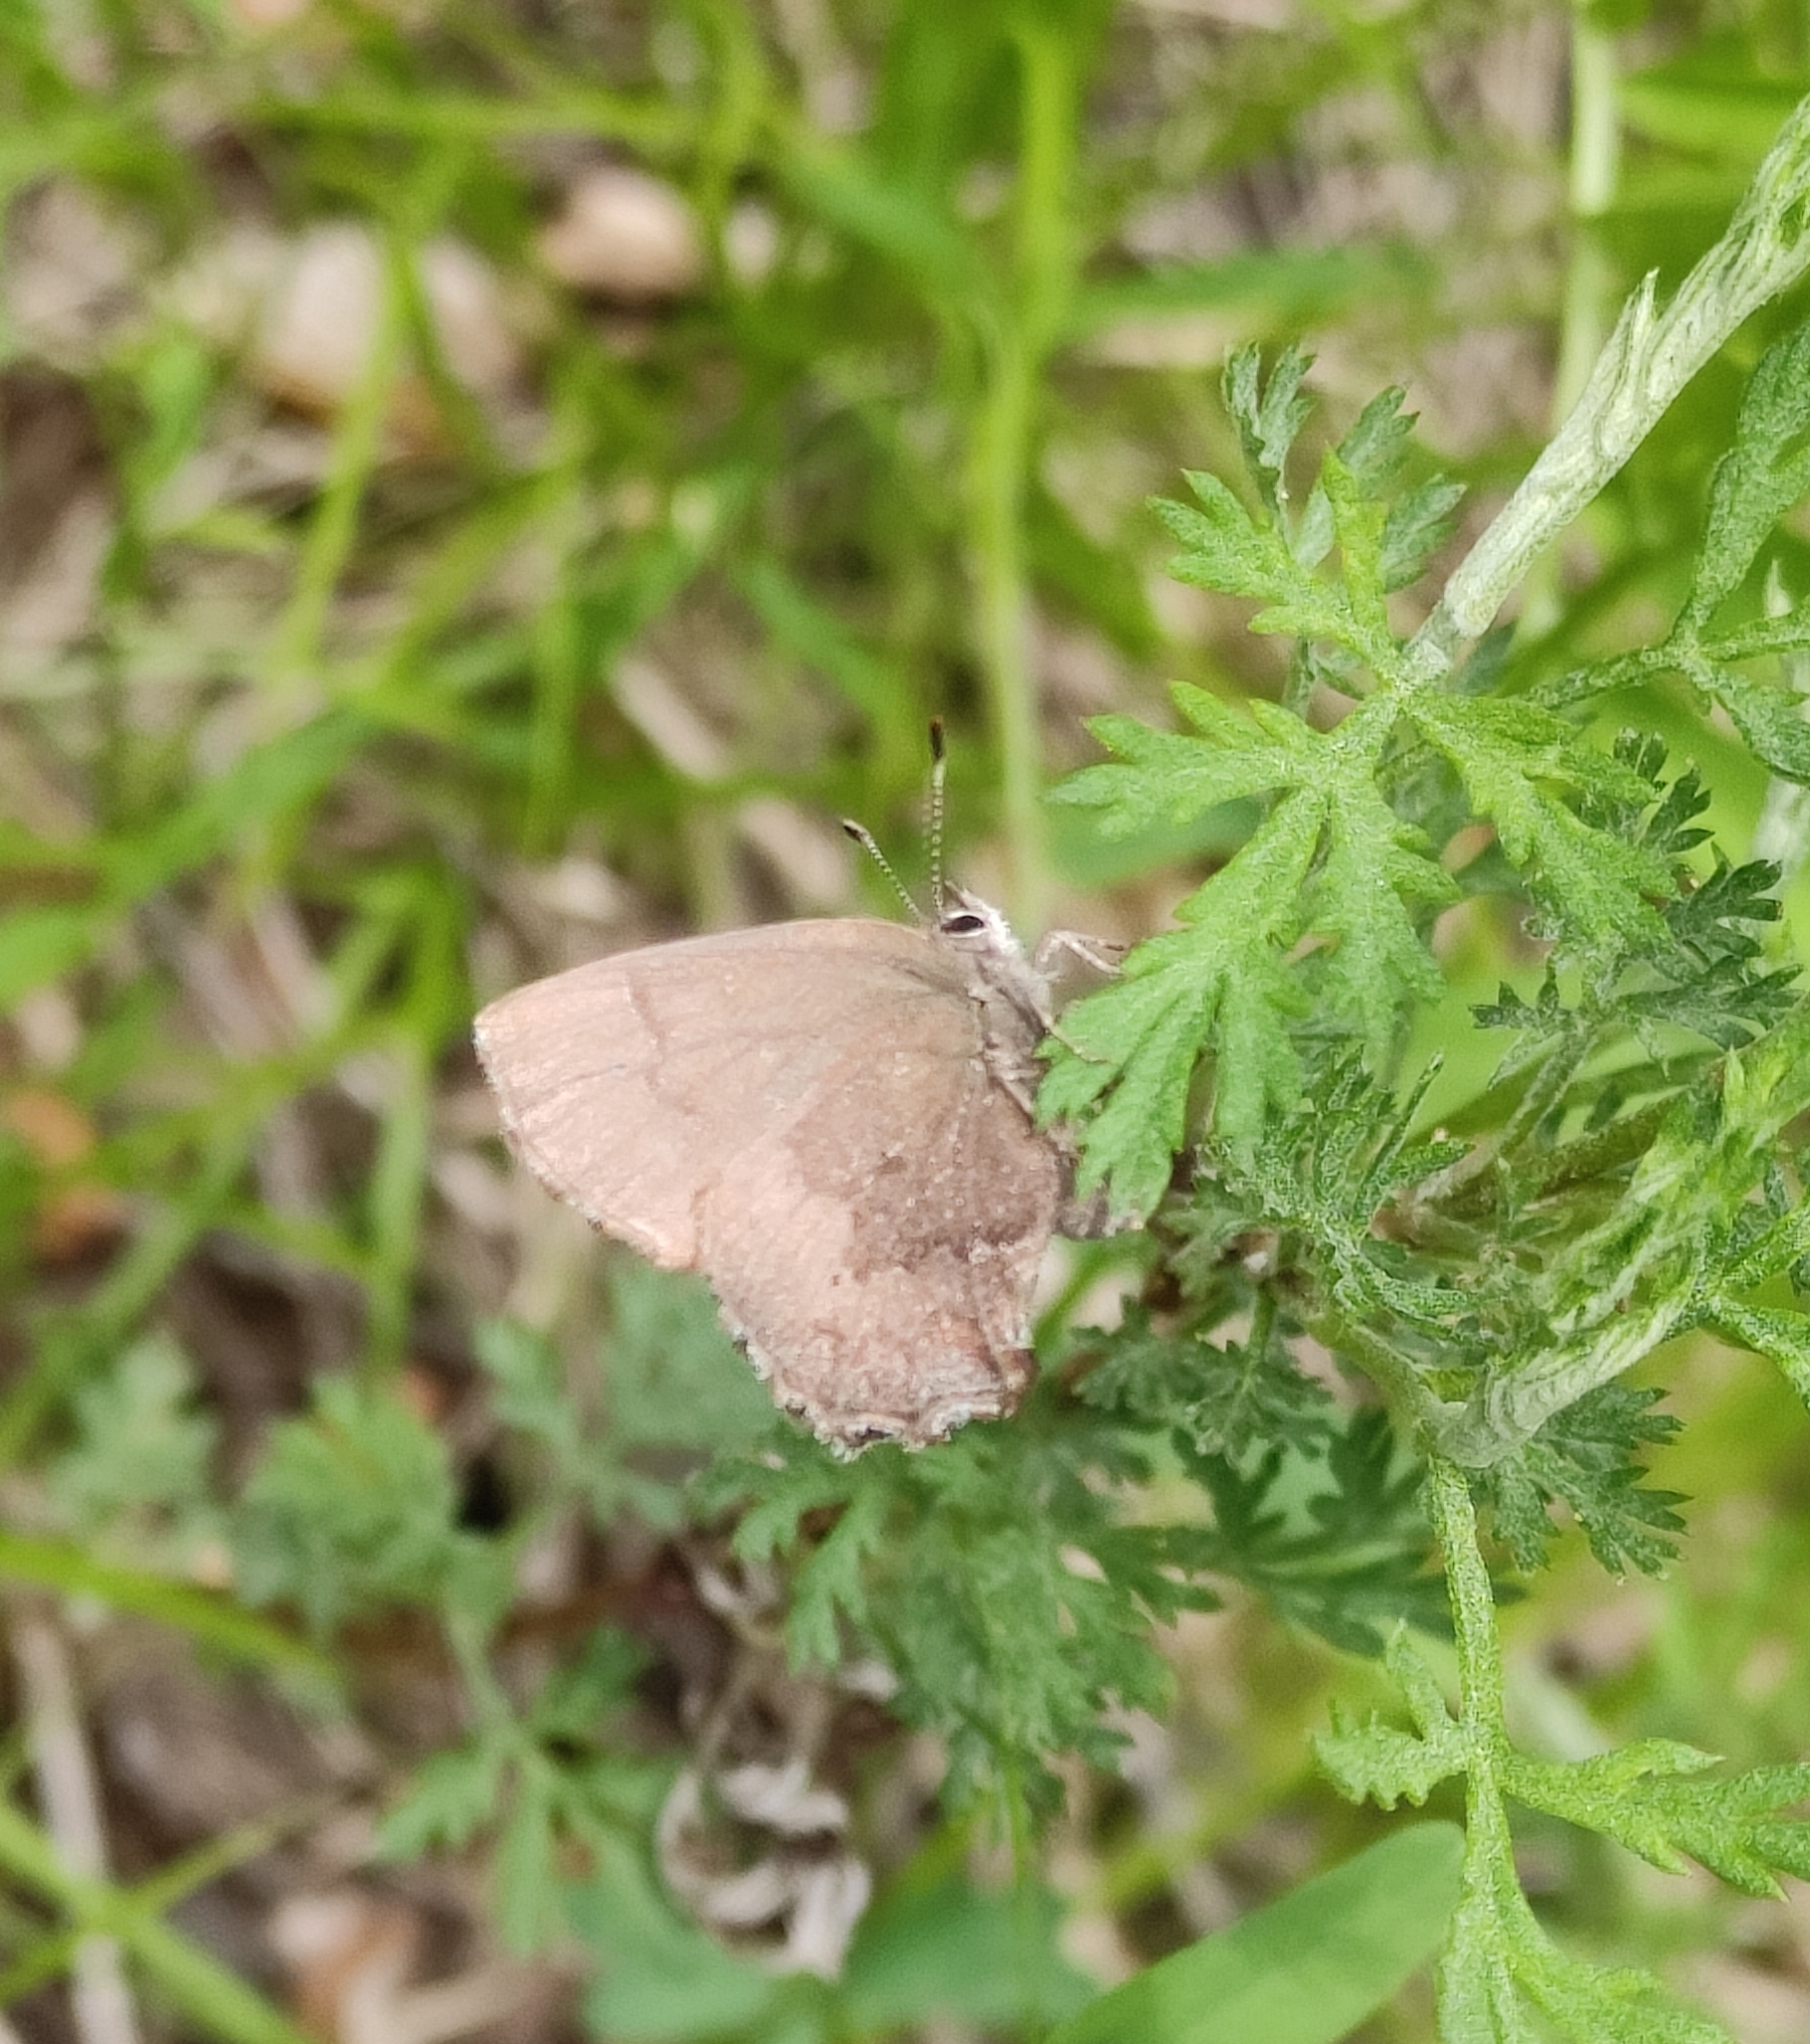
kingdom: Animalia
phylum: Arthropoda
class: Insecta
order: Lepidoptera
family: Lycaenidae
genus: Ginzia
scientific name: Ginzia Ahlbergia frivaldszkyi
